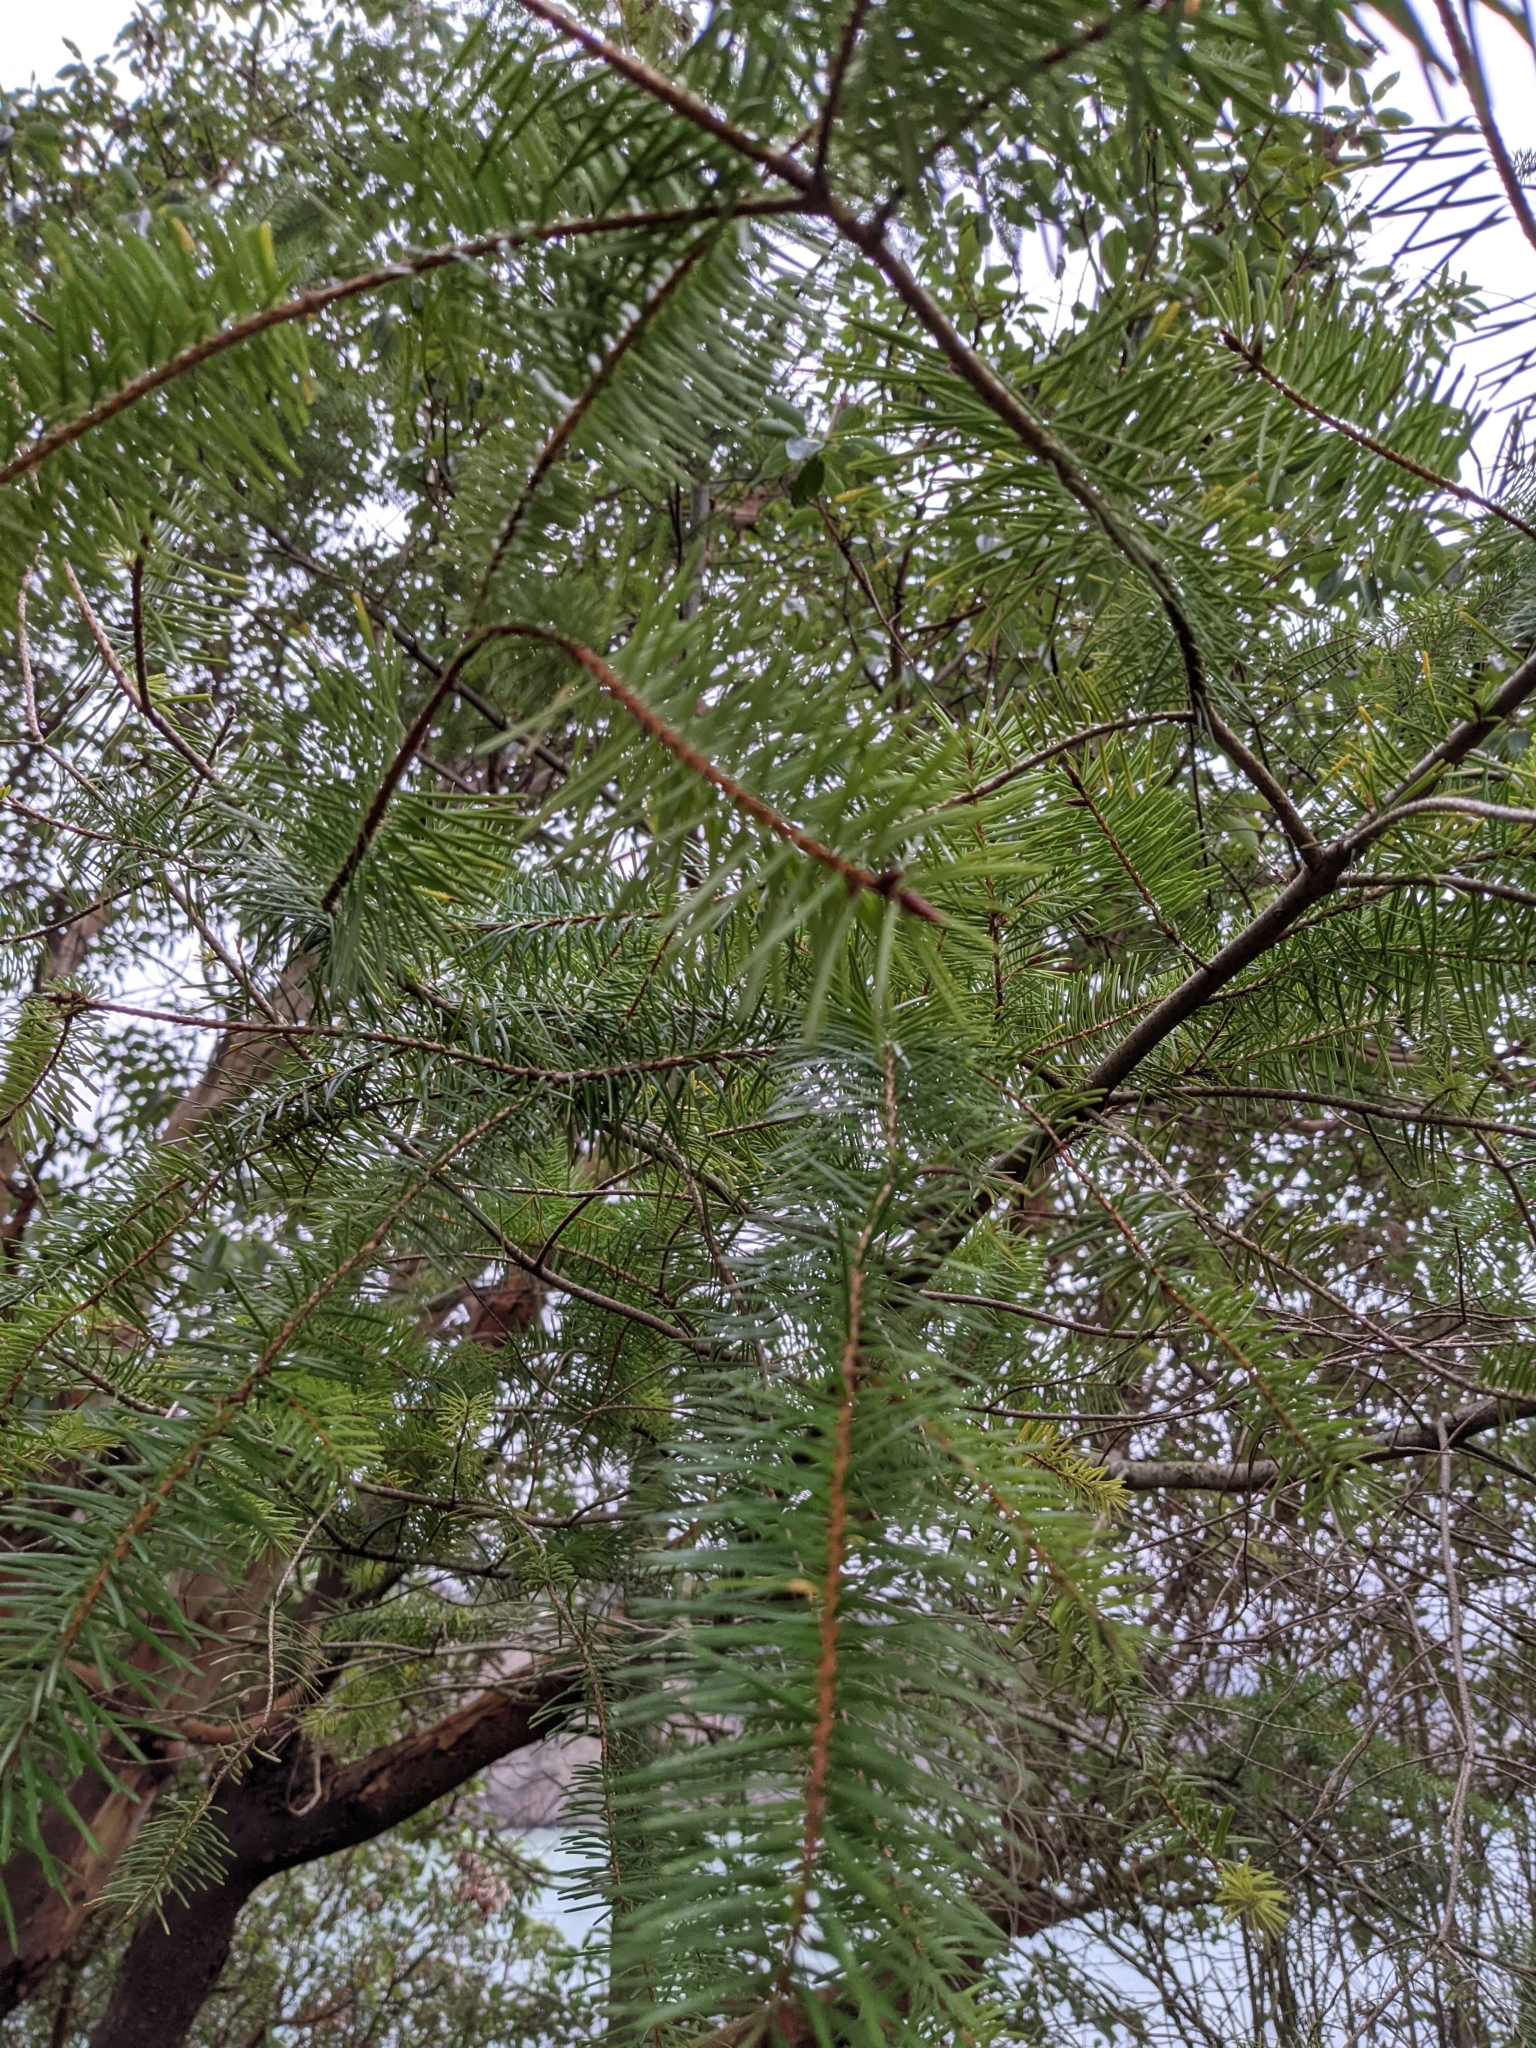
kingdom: Plantae
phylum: Tracheophyta
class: Pinopsida
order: Pinales
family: Pinaceae
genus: Pseudotsuga
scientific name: Pseudotsuga menziesii
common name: Douglas fir
